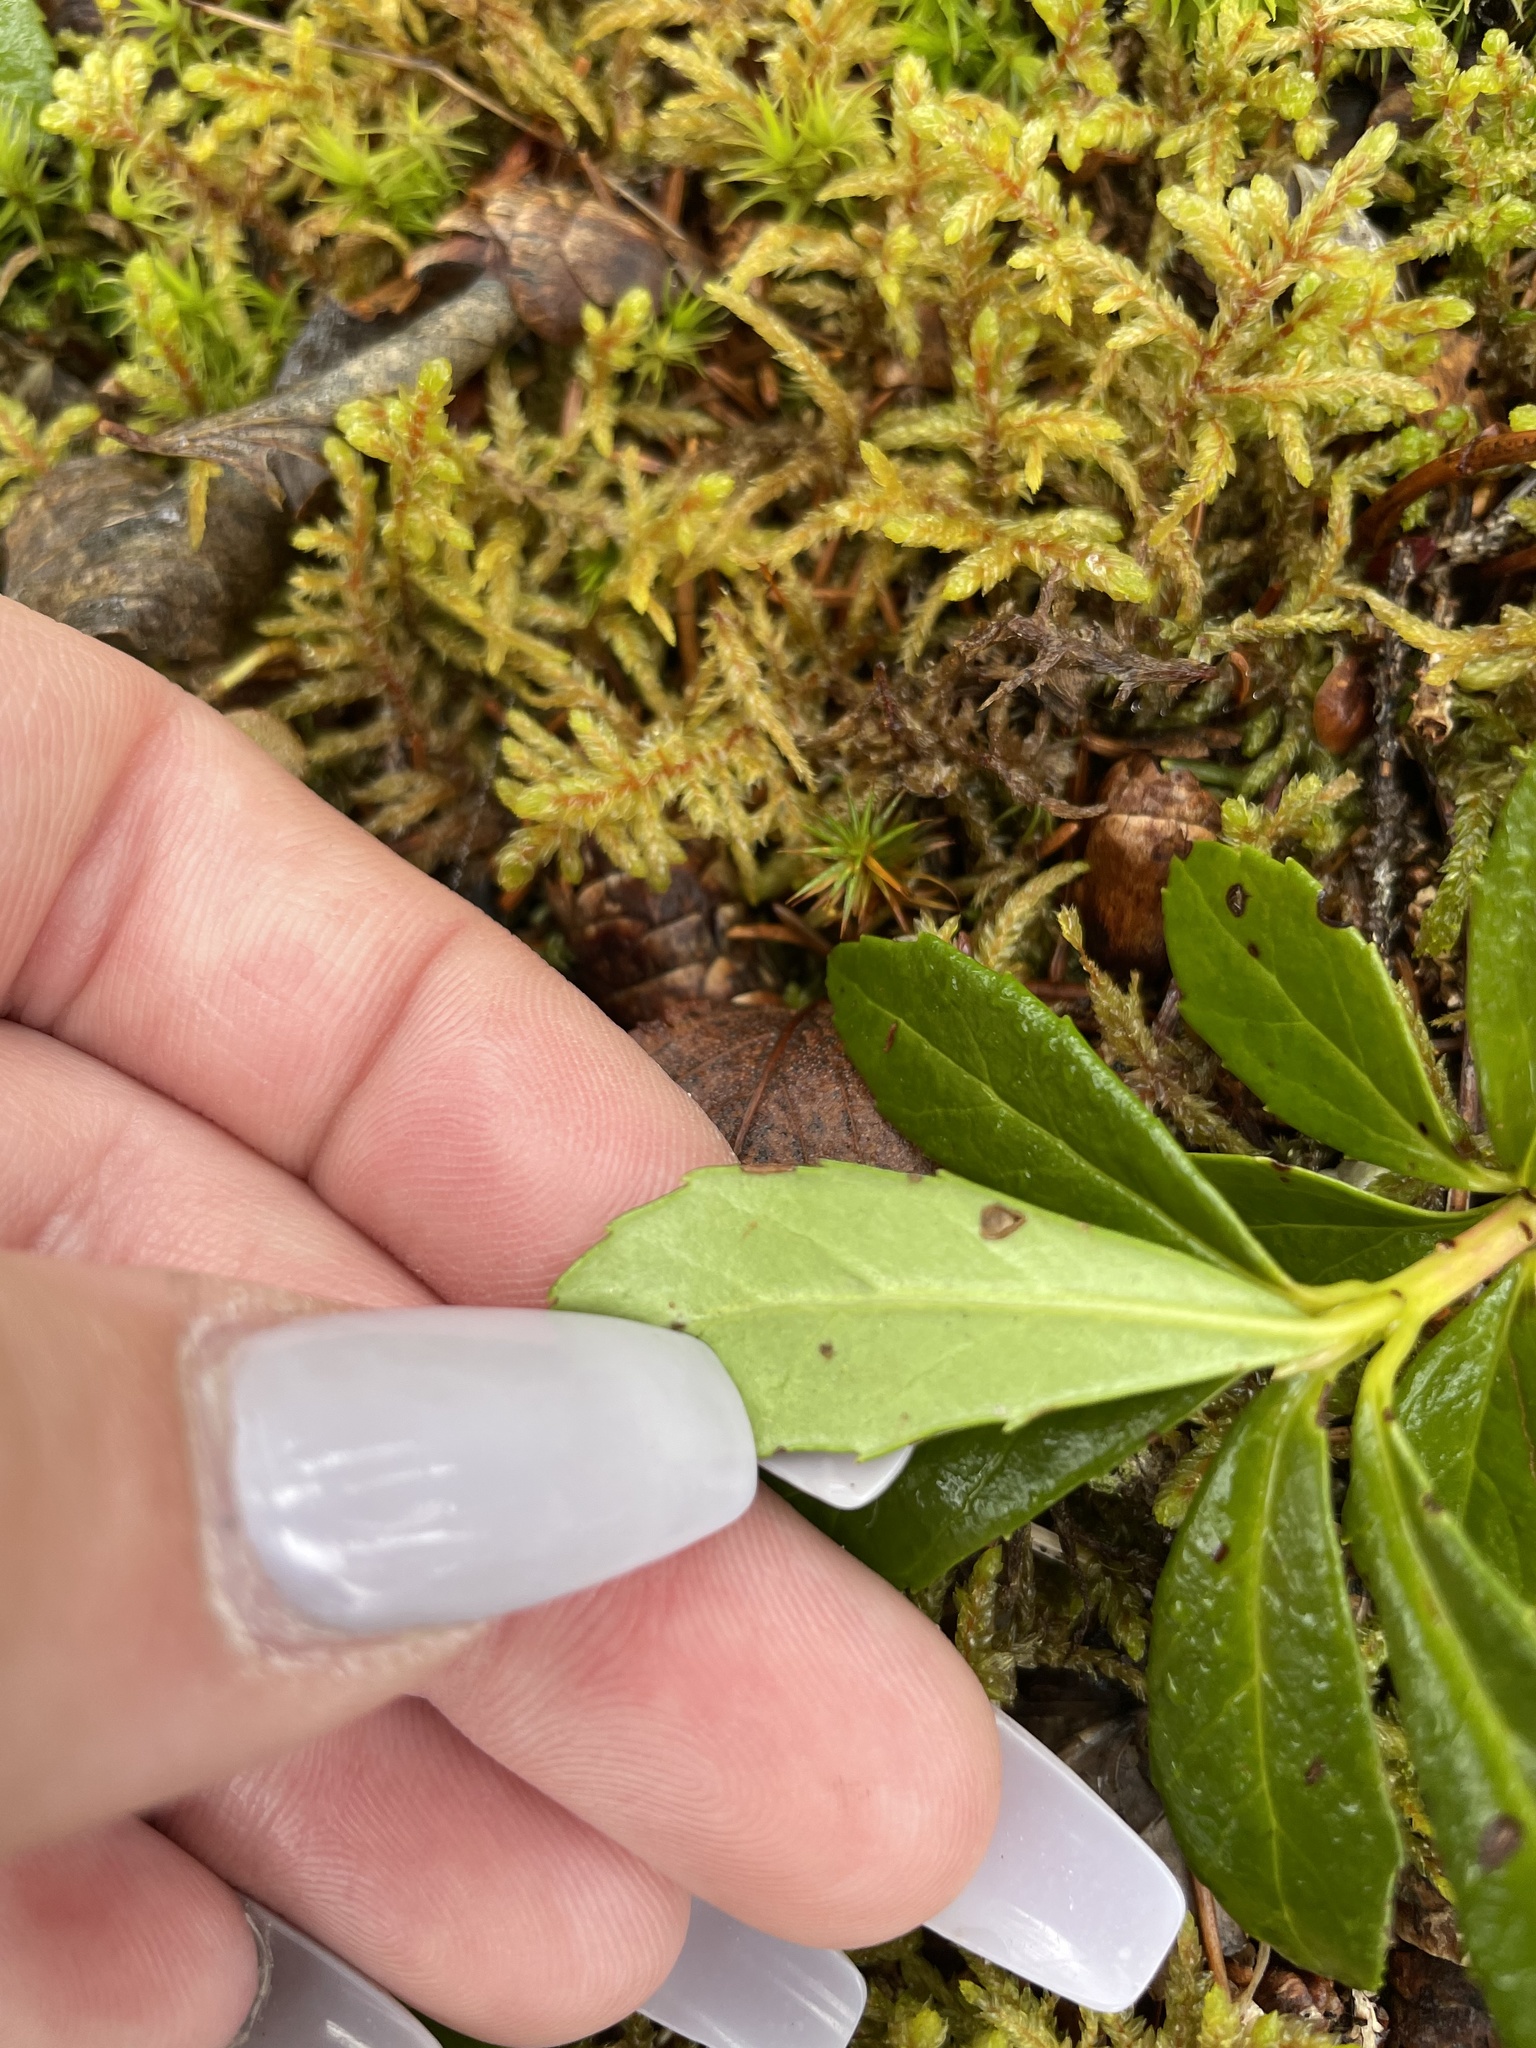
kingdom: Plantae
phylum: Tracheophyta
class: Magnoliopsida
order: Ericales
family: Ericaceae
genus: Chimaphila
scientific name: Chimaphila umbellata
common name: Pipsissewa
